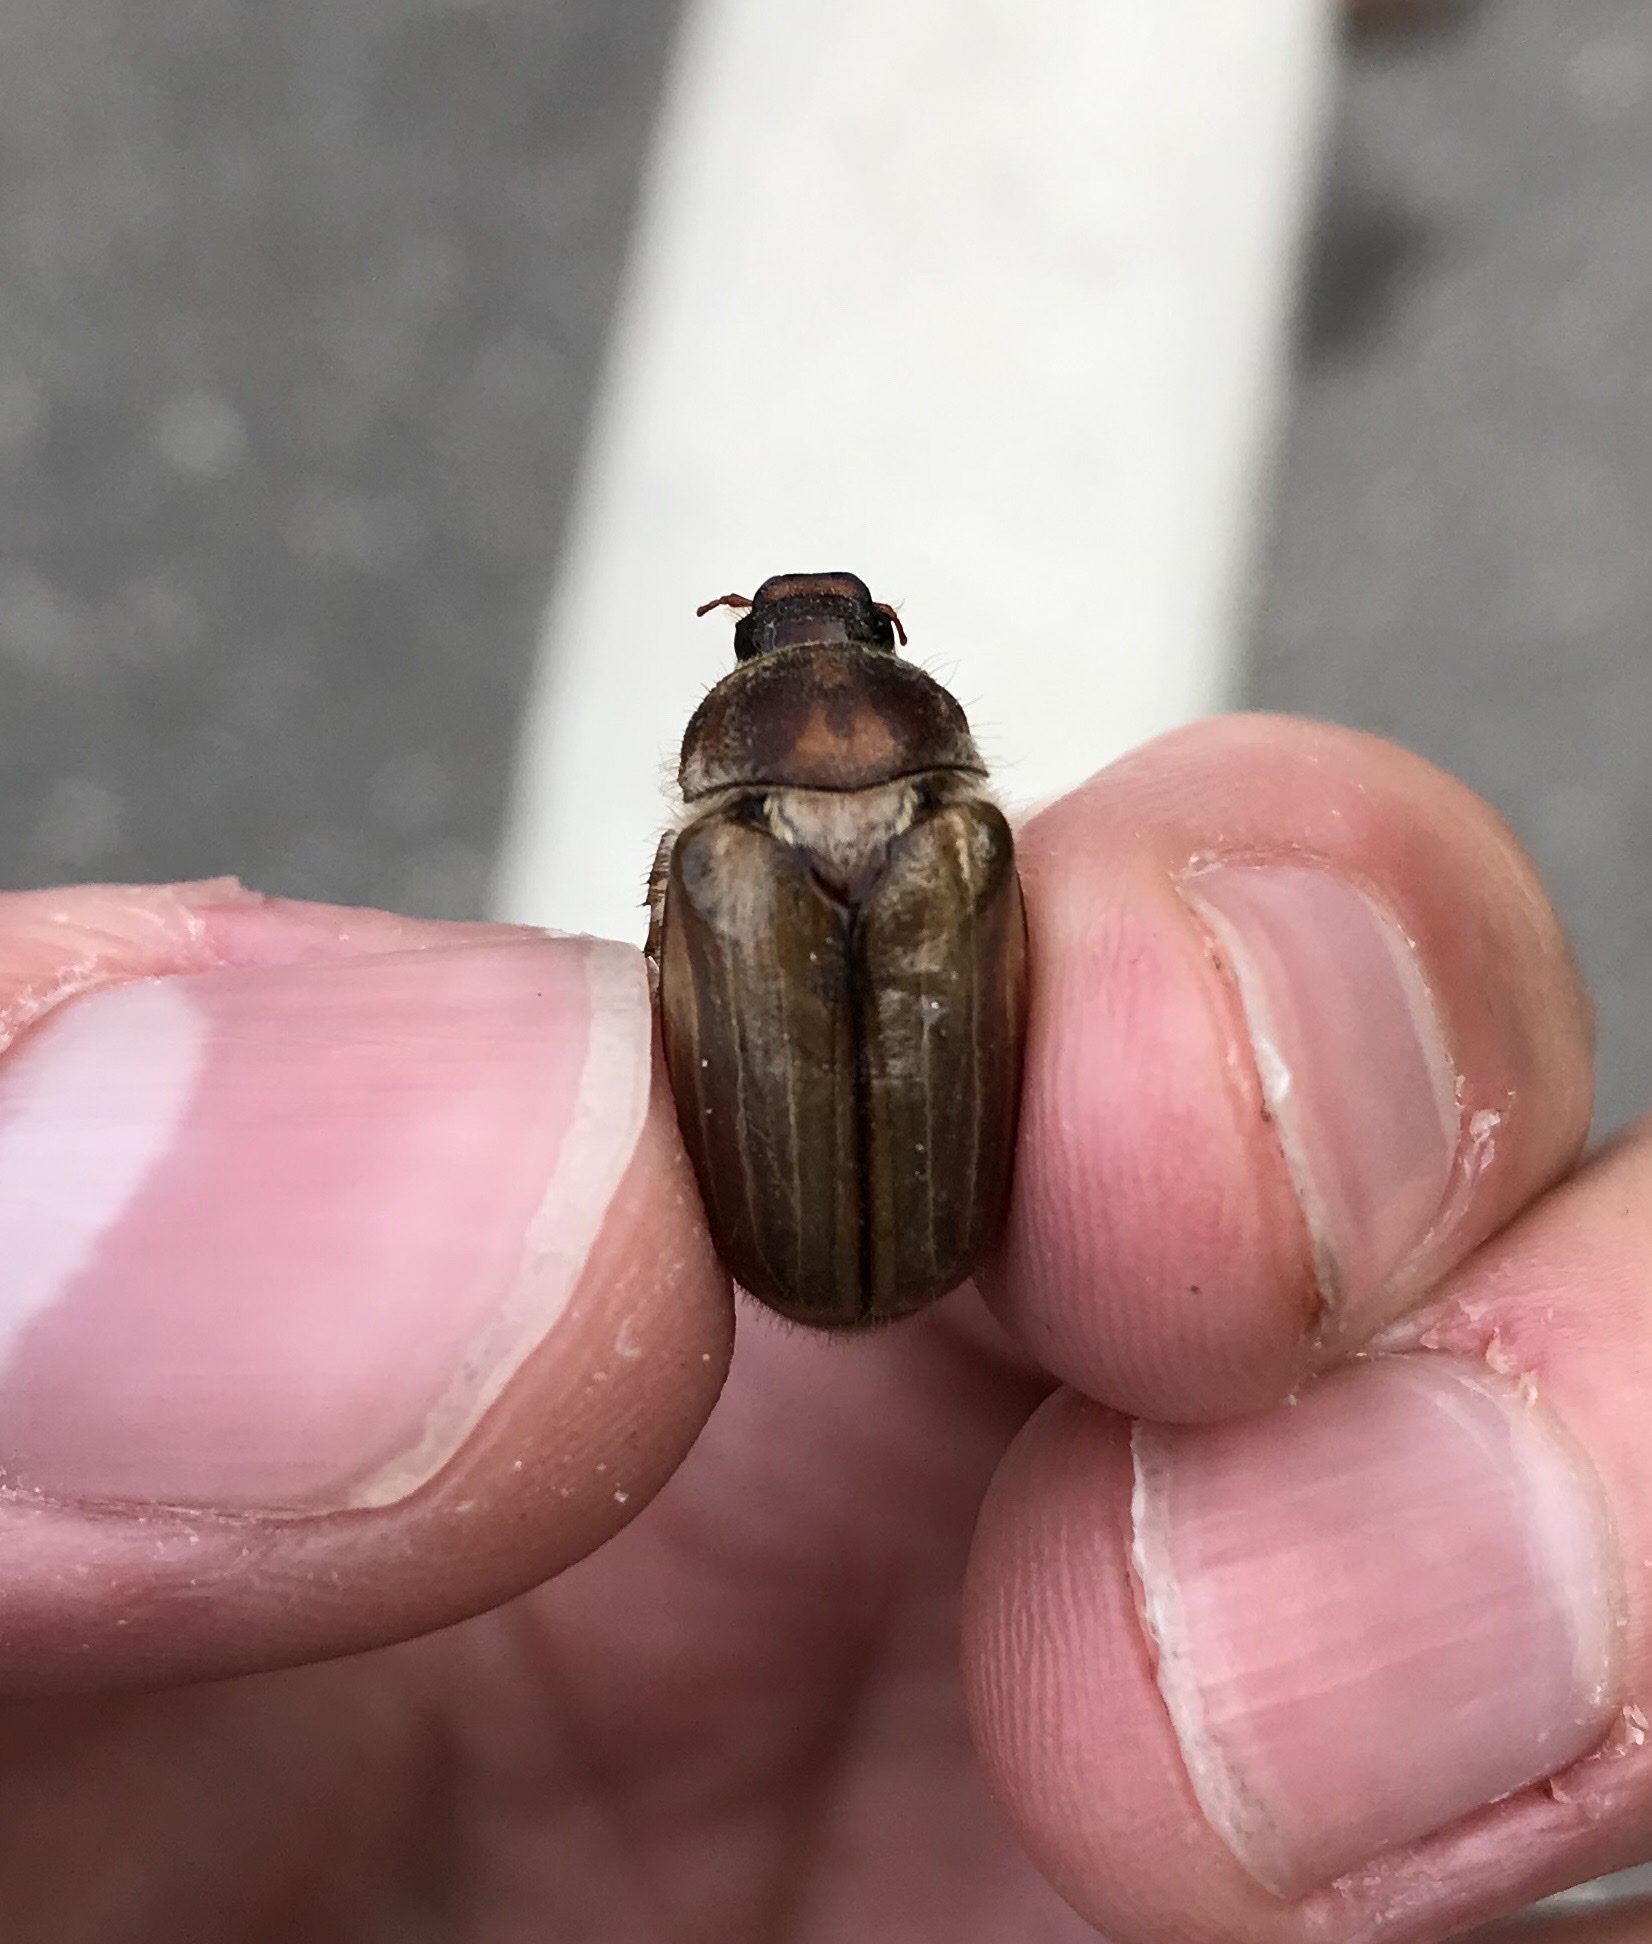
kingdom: Animalia
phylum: Arthropoda
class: Insecta
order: Coleoptera
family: Scarabaeidae
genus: Amphimallon
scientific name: Amphimallon solstitiale
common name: Summer chafer
